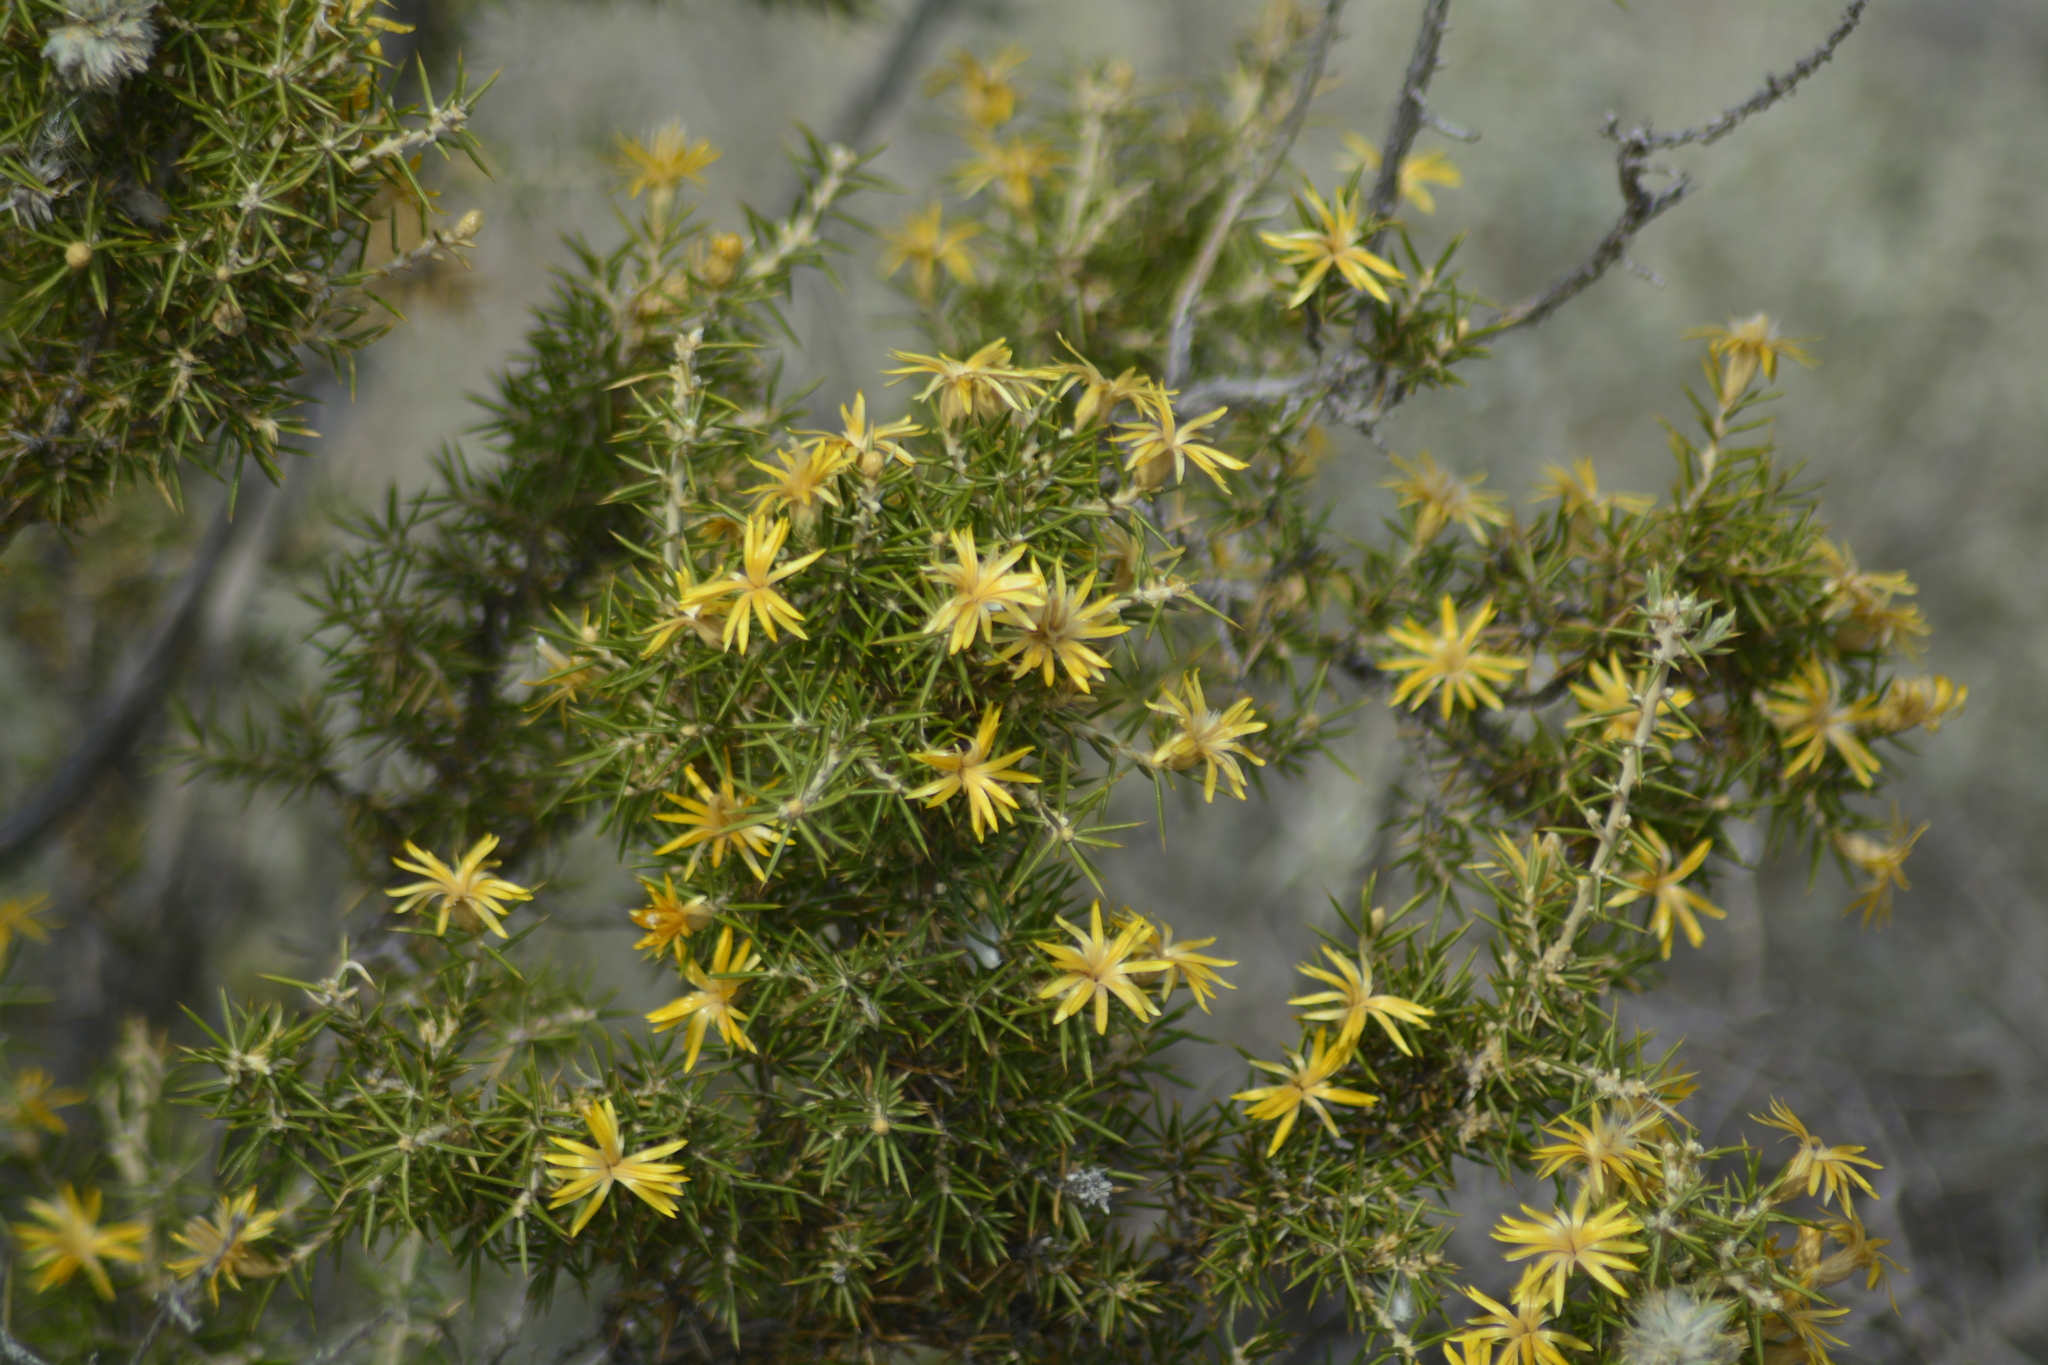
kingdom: Plantae
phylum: Tracheophyta
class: Magnoliopsida
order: Asterales
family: Asteraceae
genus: Chuquiraga
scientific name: Chuquiraga erinacea
